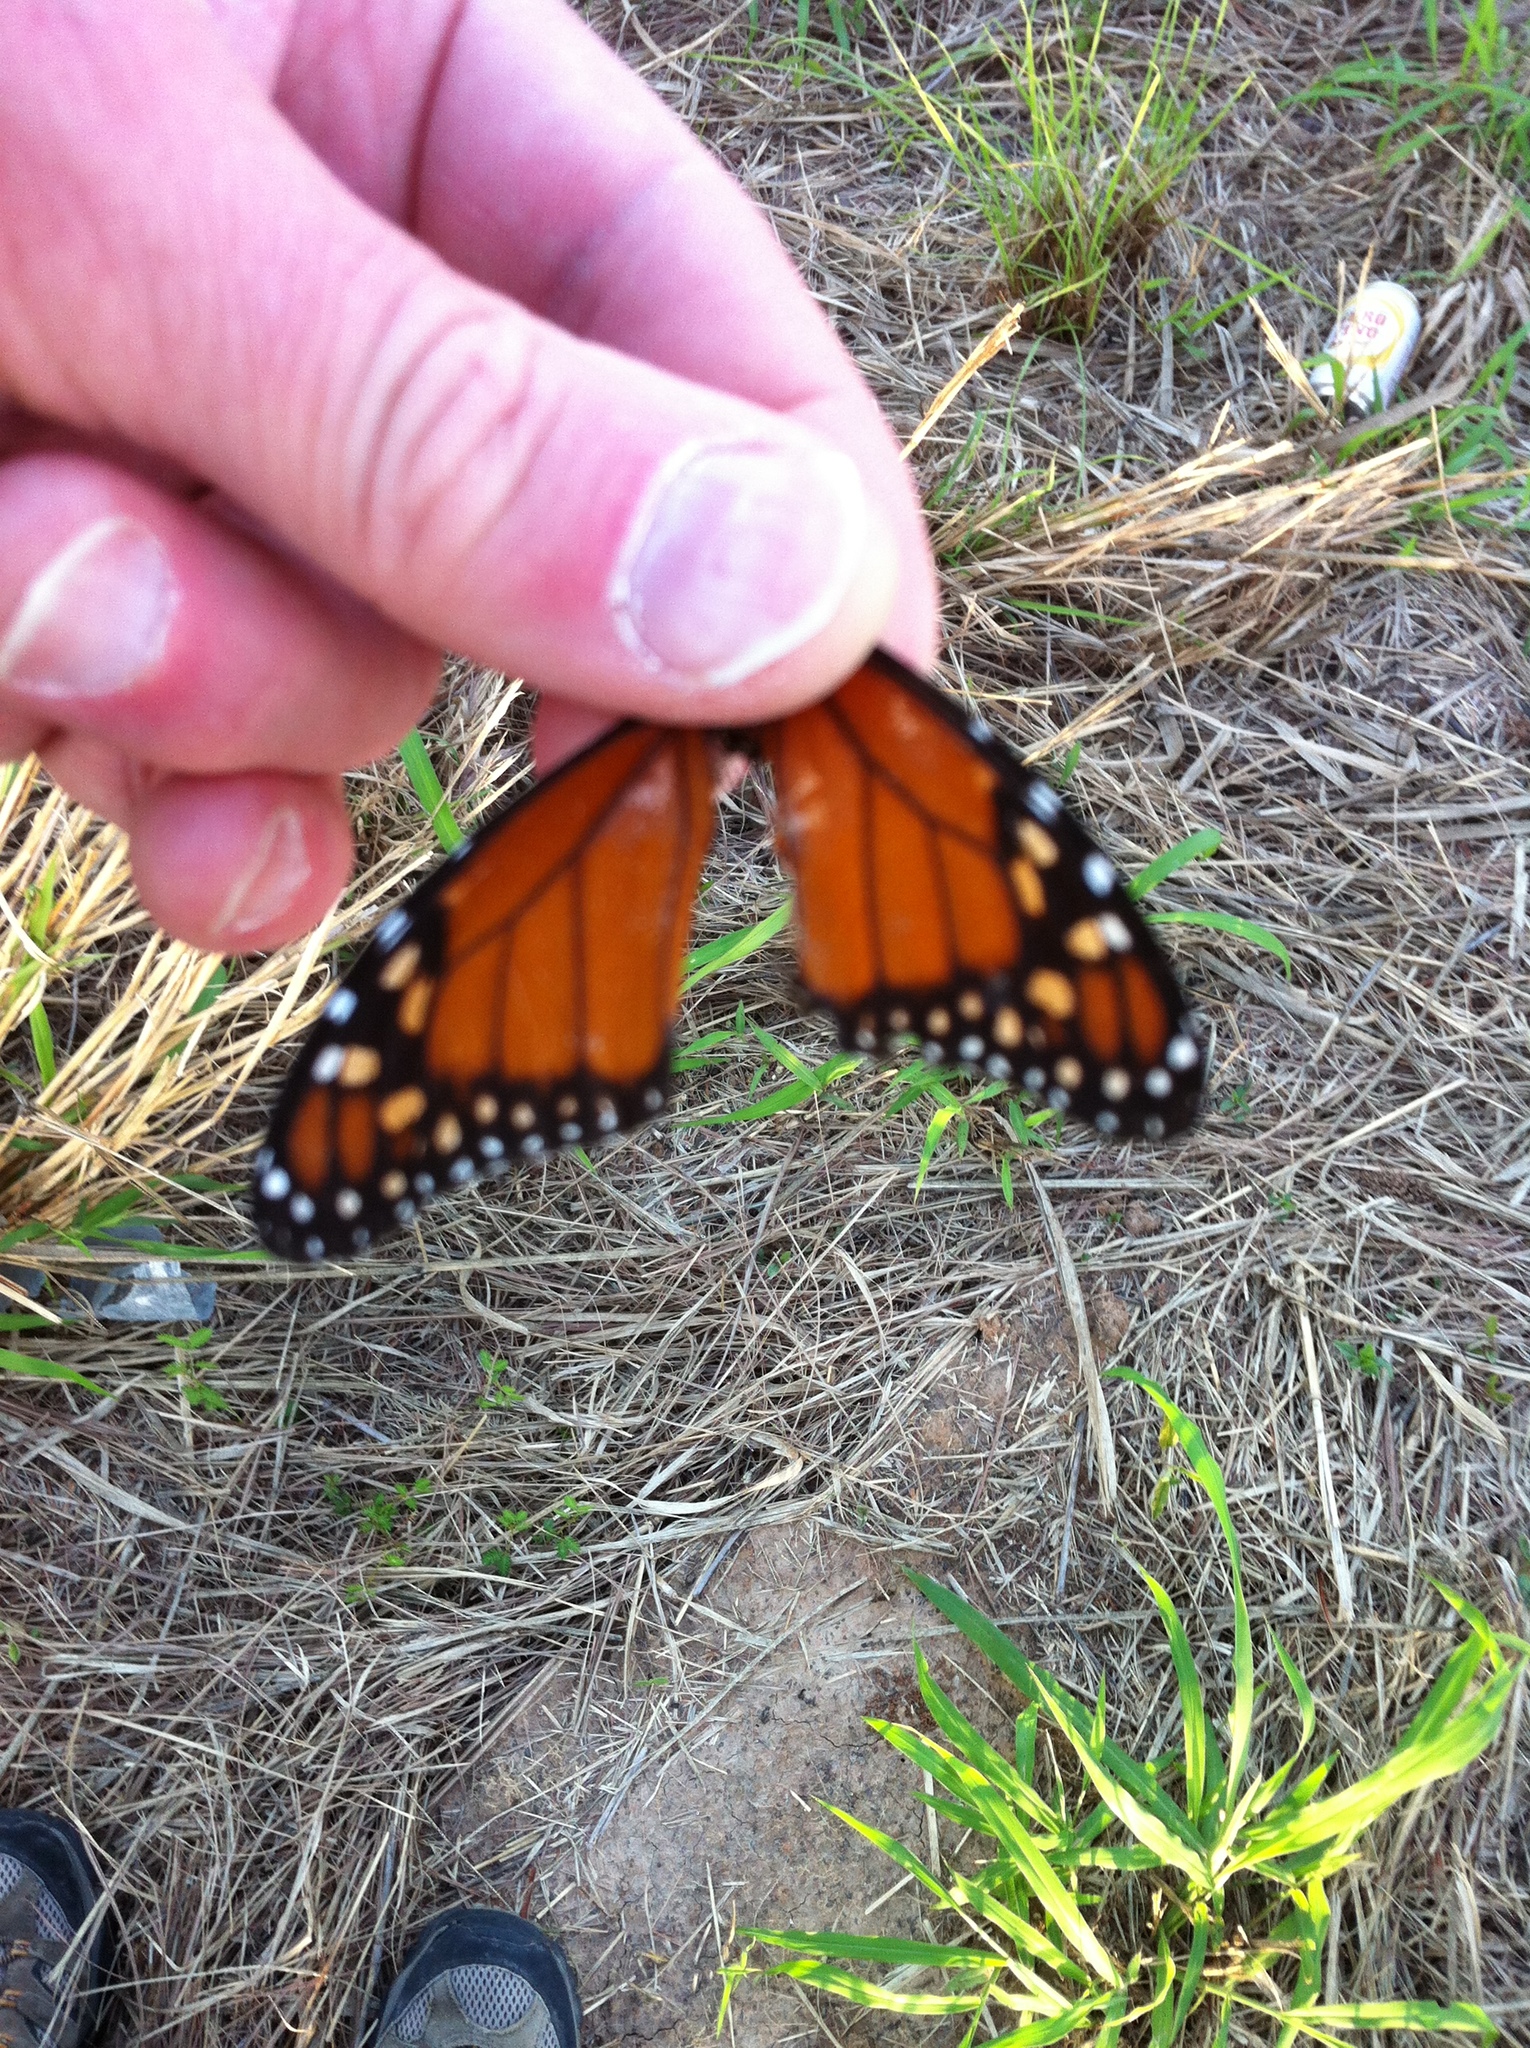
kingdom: Animalia
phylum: Arthropoda
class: Insecta
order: Lepidoptera
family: Nymphalidae
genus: Danaus
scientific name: Danaus erippus
